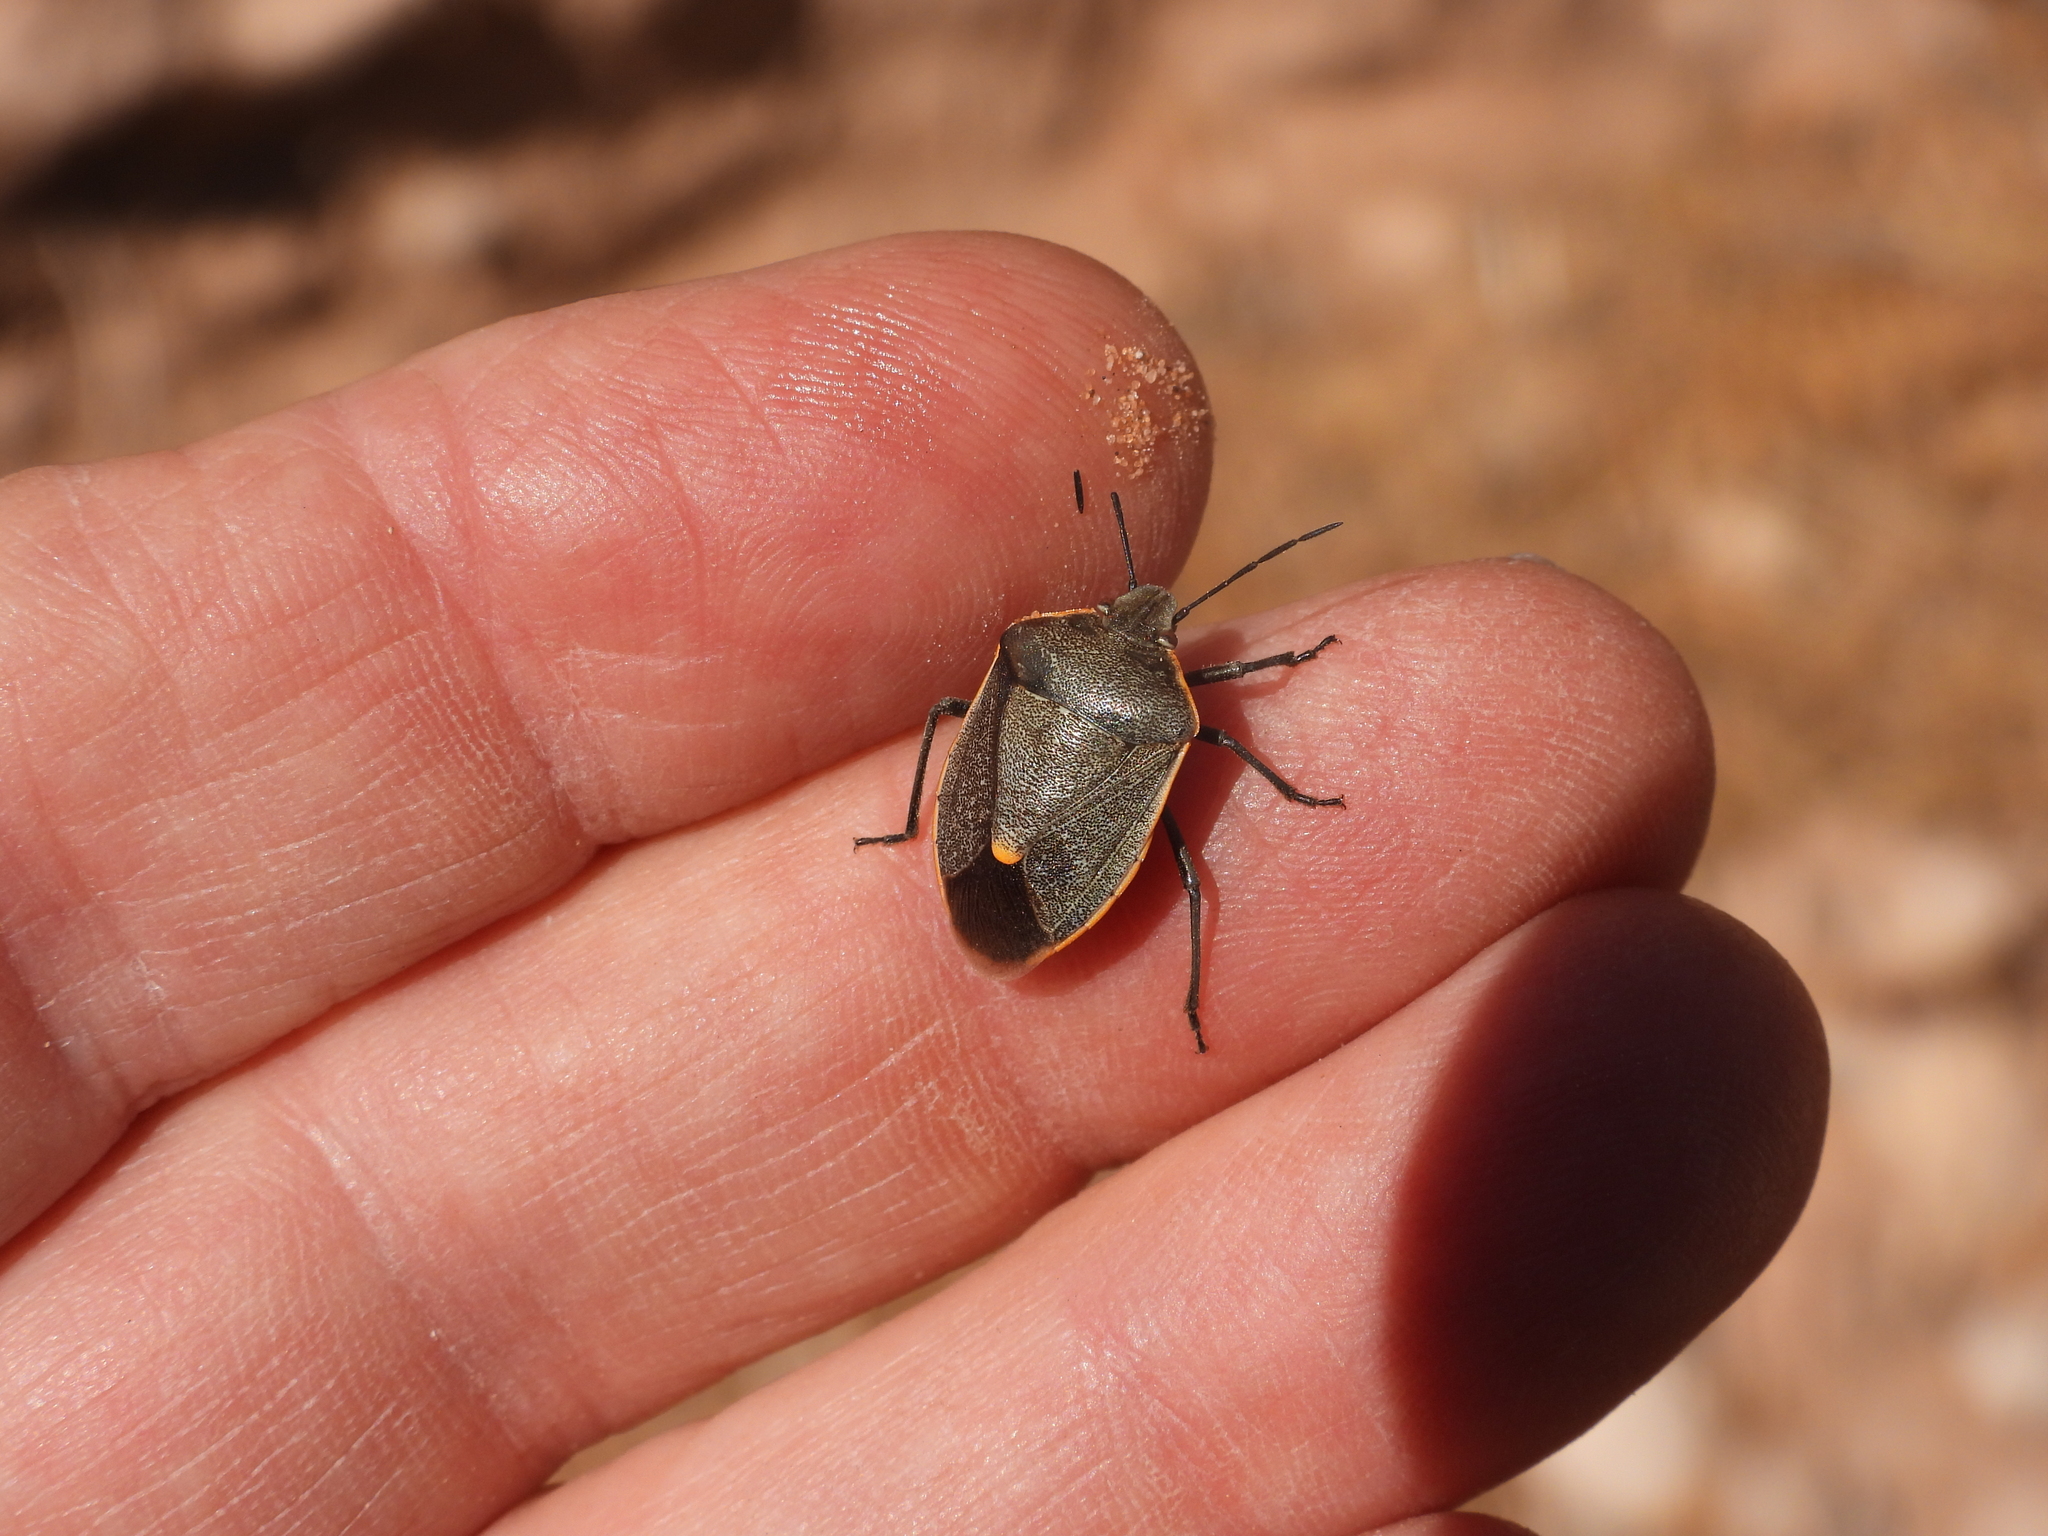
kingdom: Animalia
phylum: Arthropoda
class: Insecta
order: Hemiptera
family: Pentatomidae
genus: Chlorochroa
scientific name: Chlorochroa ligata
